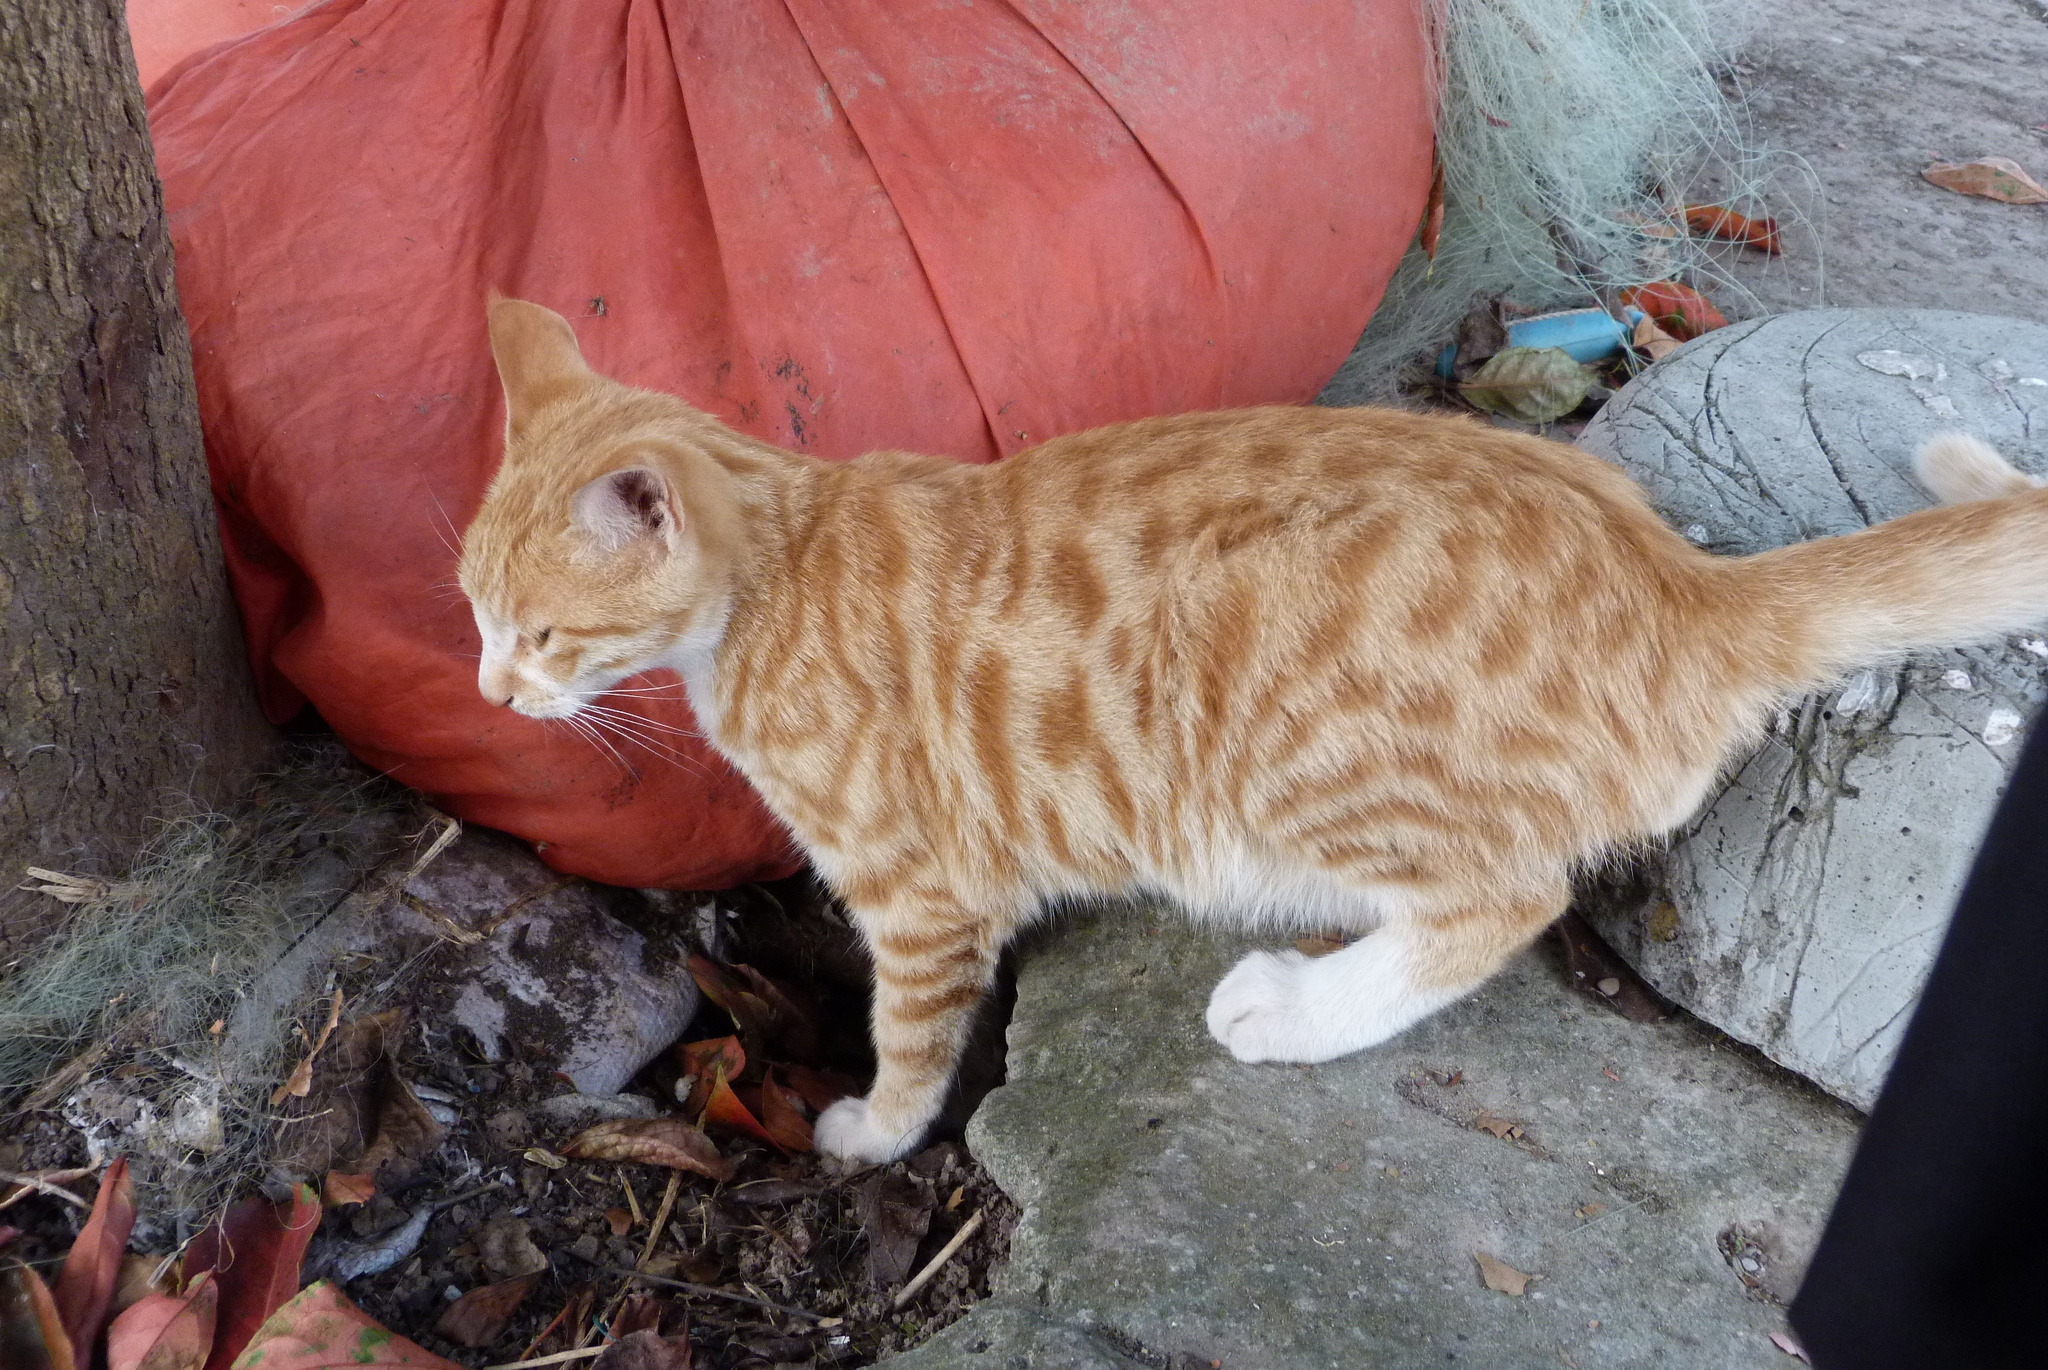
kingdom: Animalia
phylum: Chordata
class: Mammalia
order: Carnivora
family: Felidae
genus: Felis
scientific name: Felis catus
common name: Domestic cat
